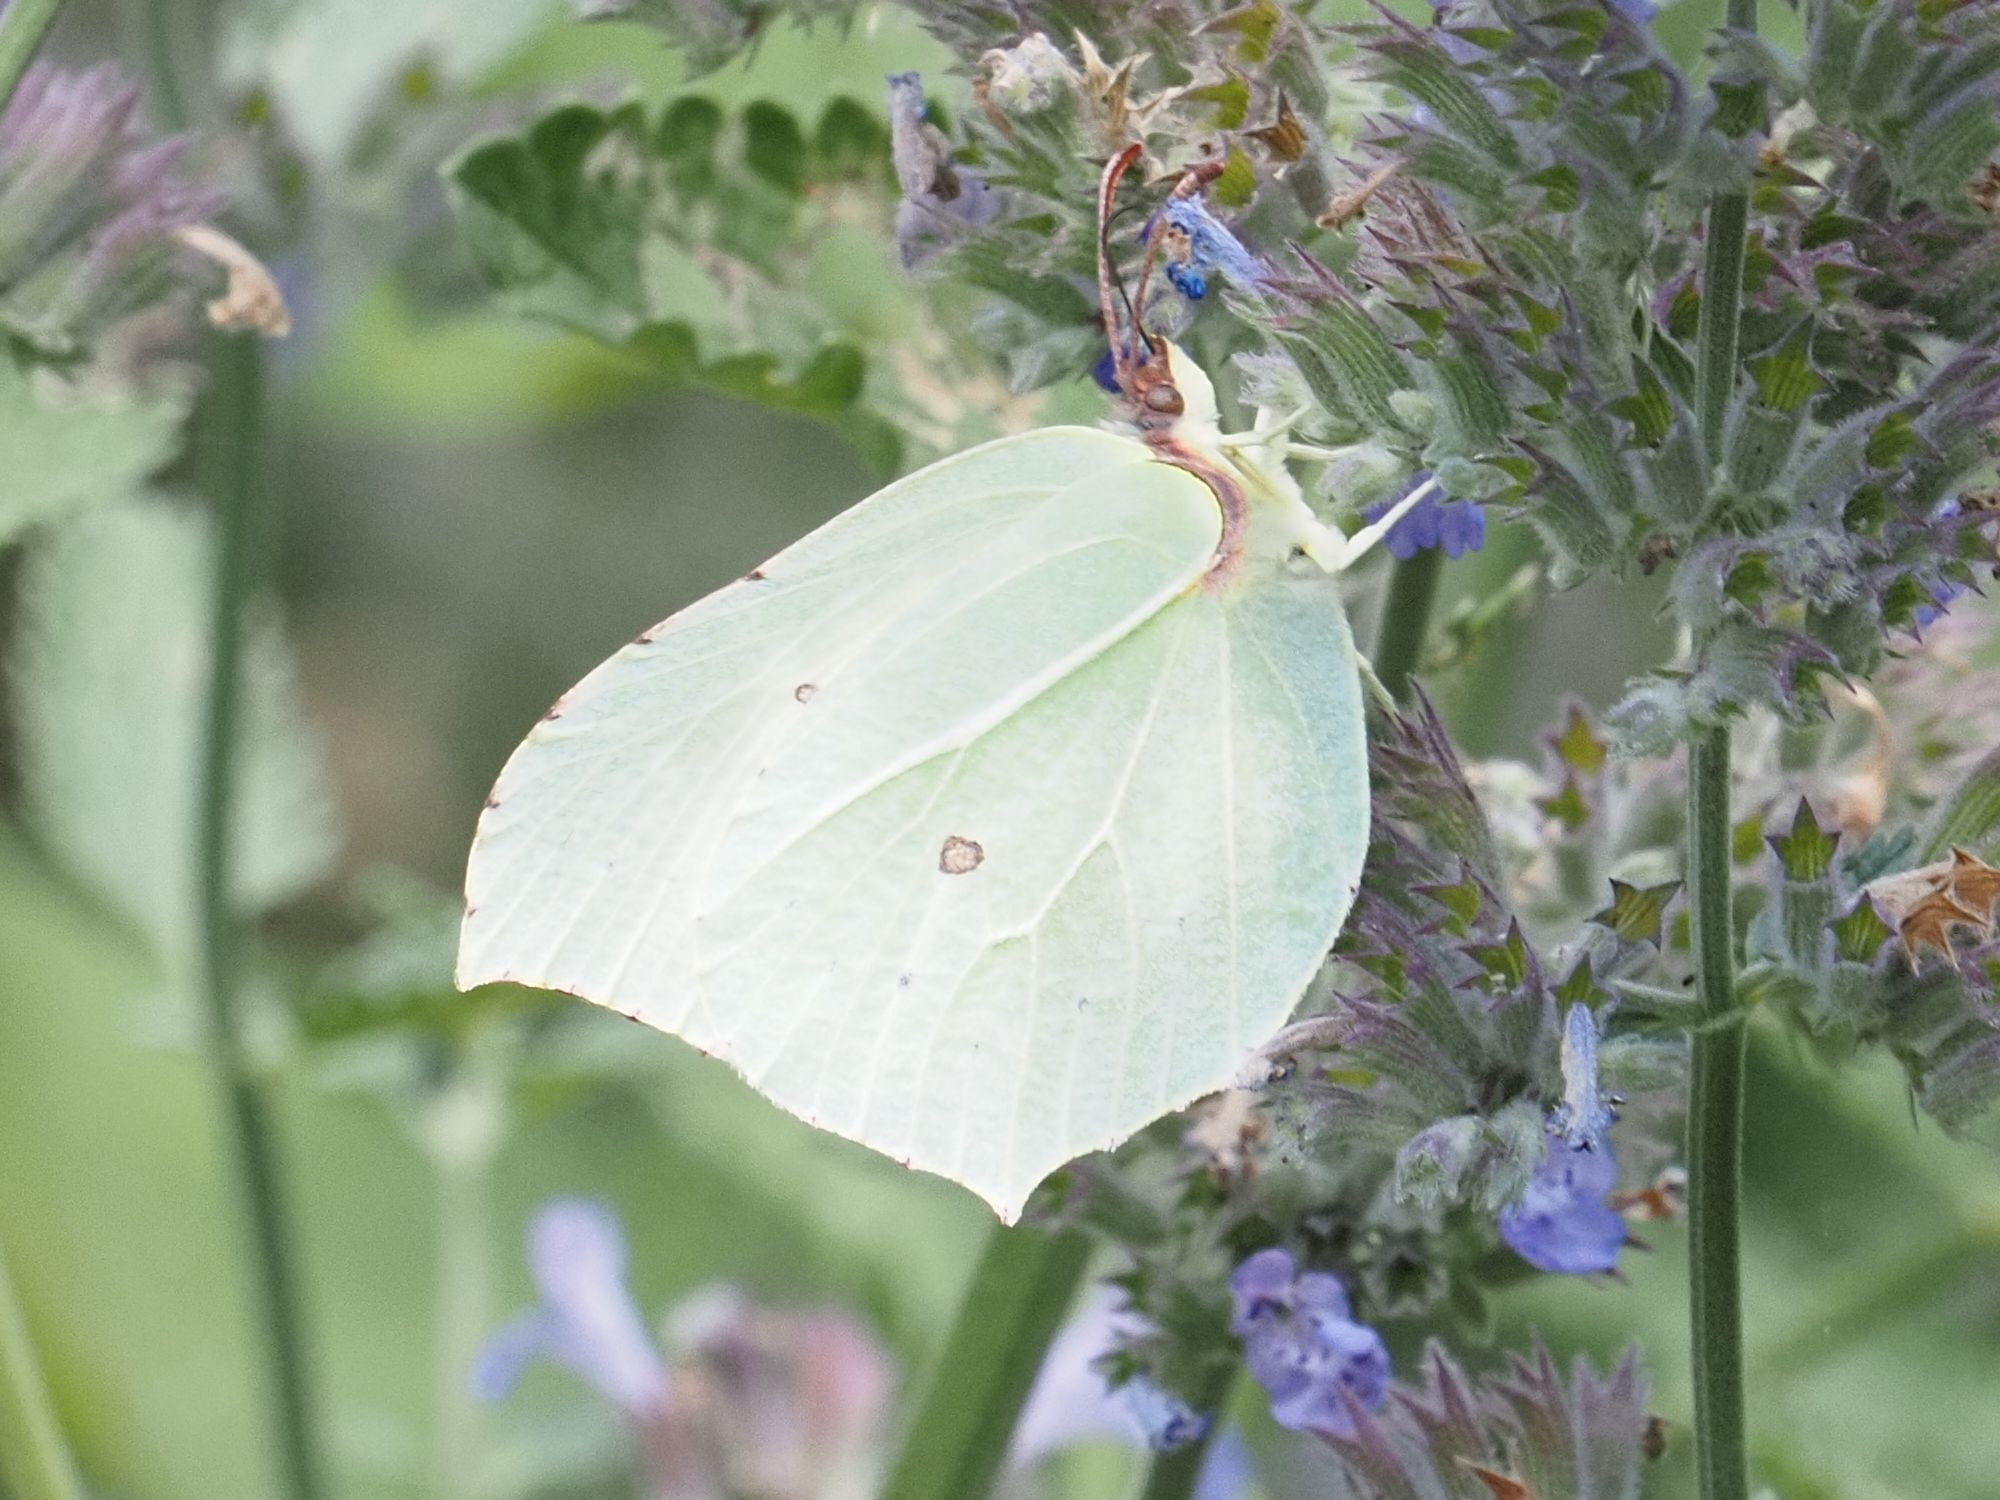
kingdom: Animalia
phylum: Arthropoda
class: Insecta
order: Lepidoptera
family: Pieridae
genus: Gonepteryx
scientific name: Gonepteryx rhamni
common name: Brimstone
